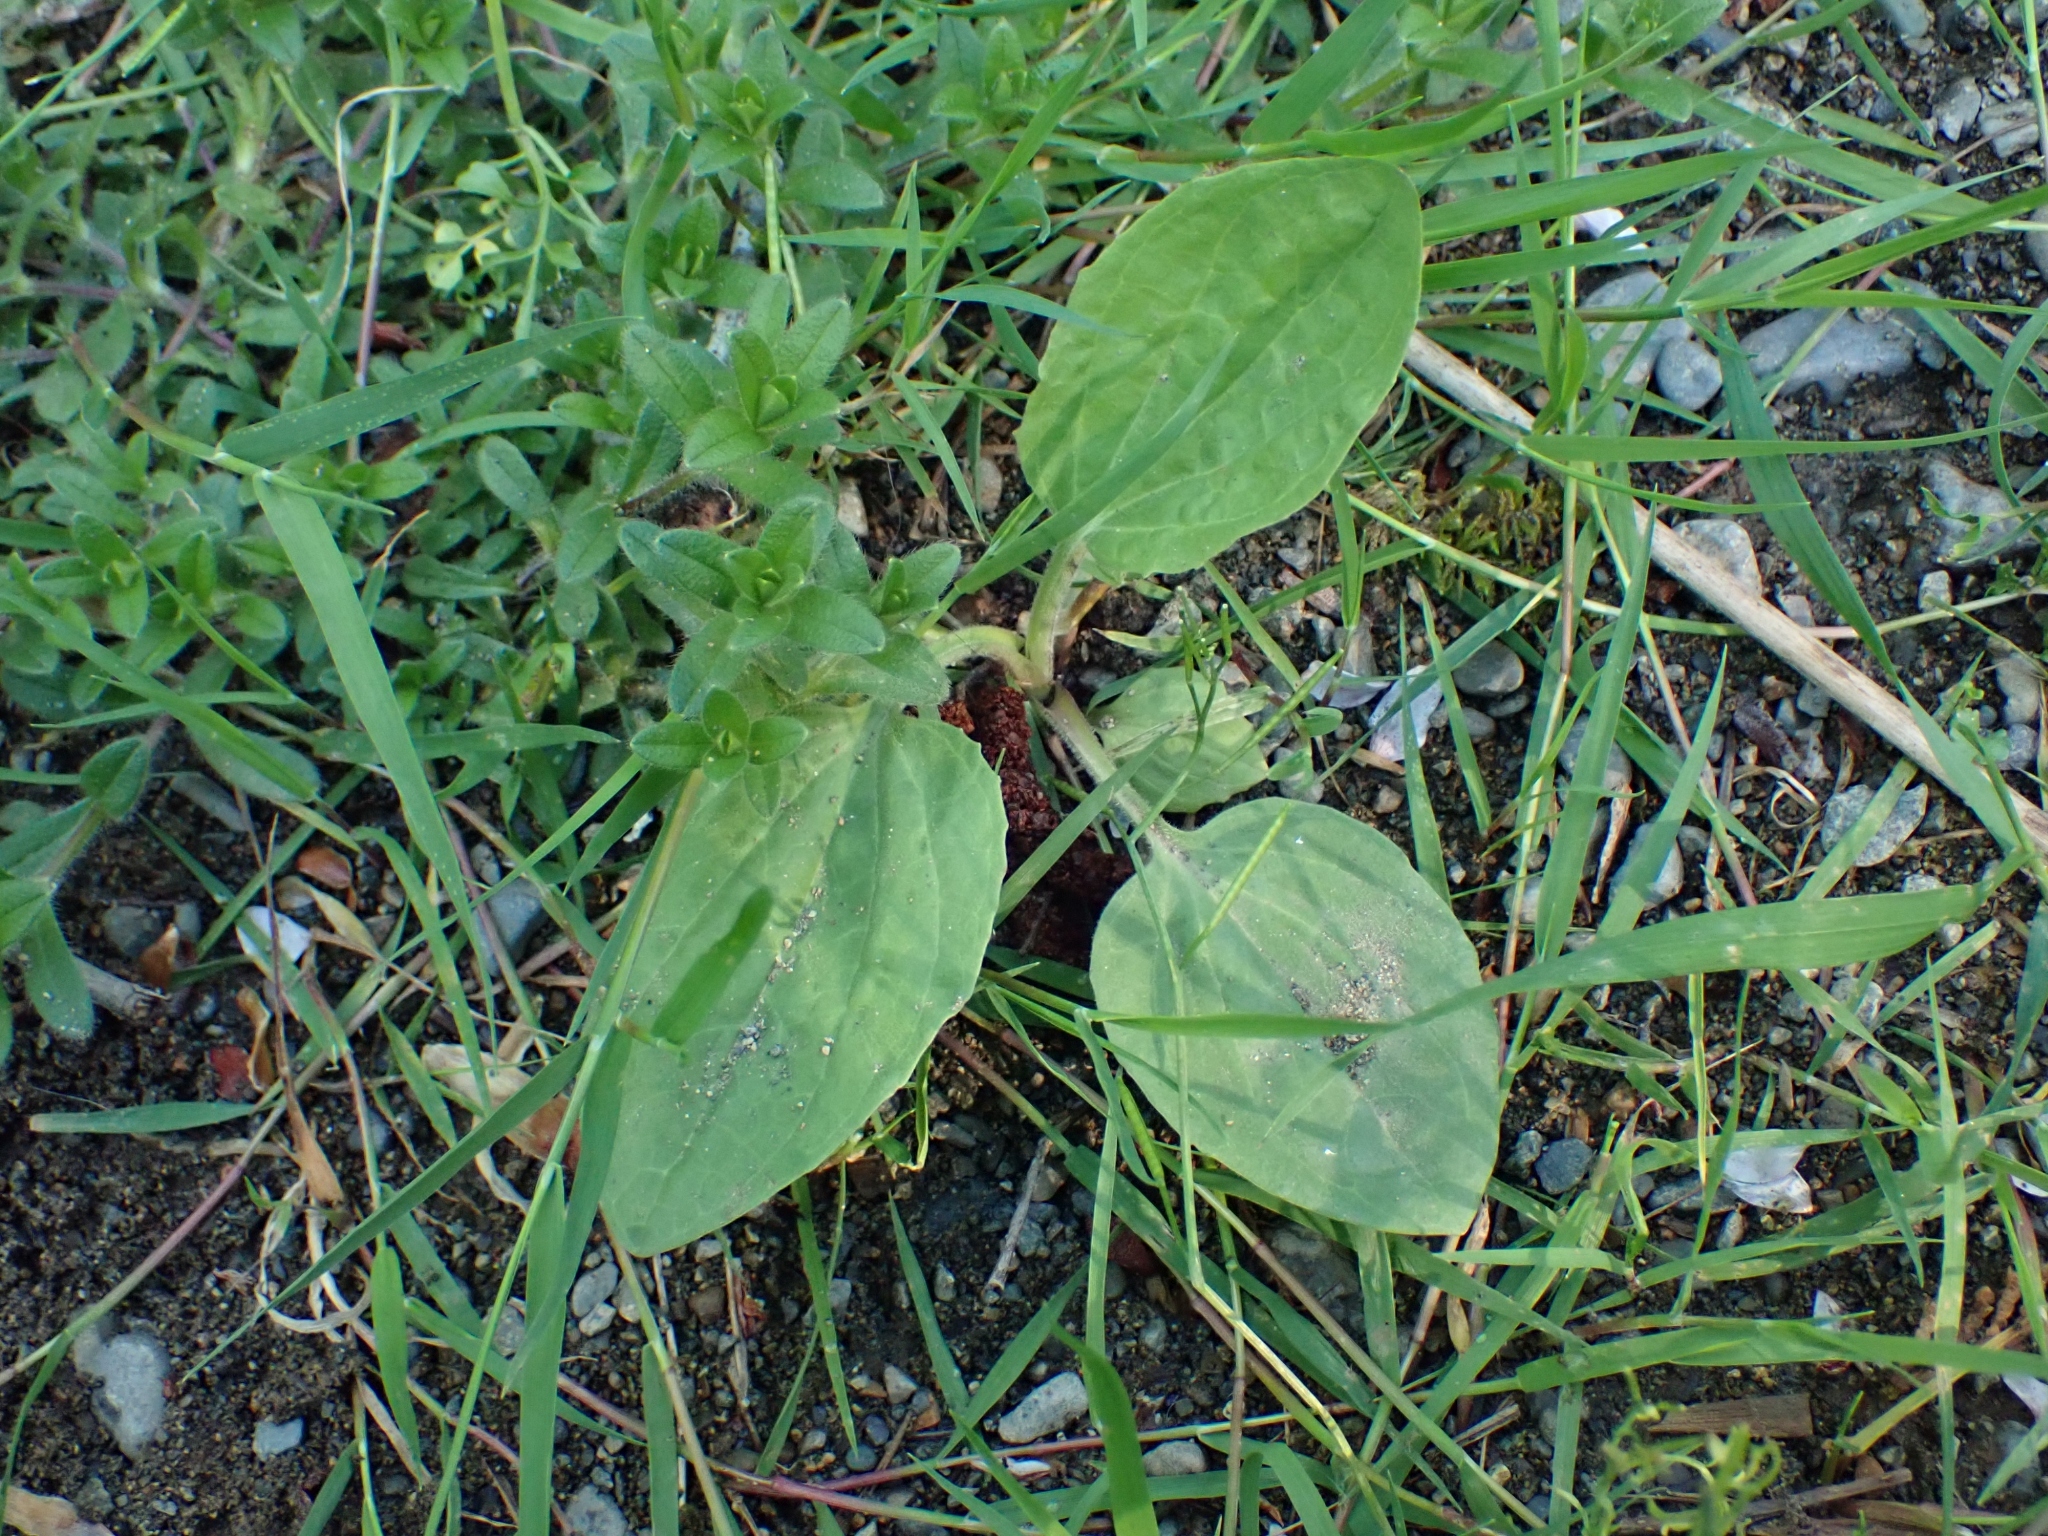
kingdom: Plantae
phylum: Tracheophyta
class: Magnoliopsida
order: Lamiales
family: Plantaginaceae
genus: Plantago
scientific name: Plantago major
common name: Common plantain
